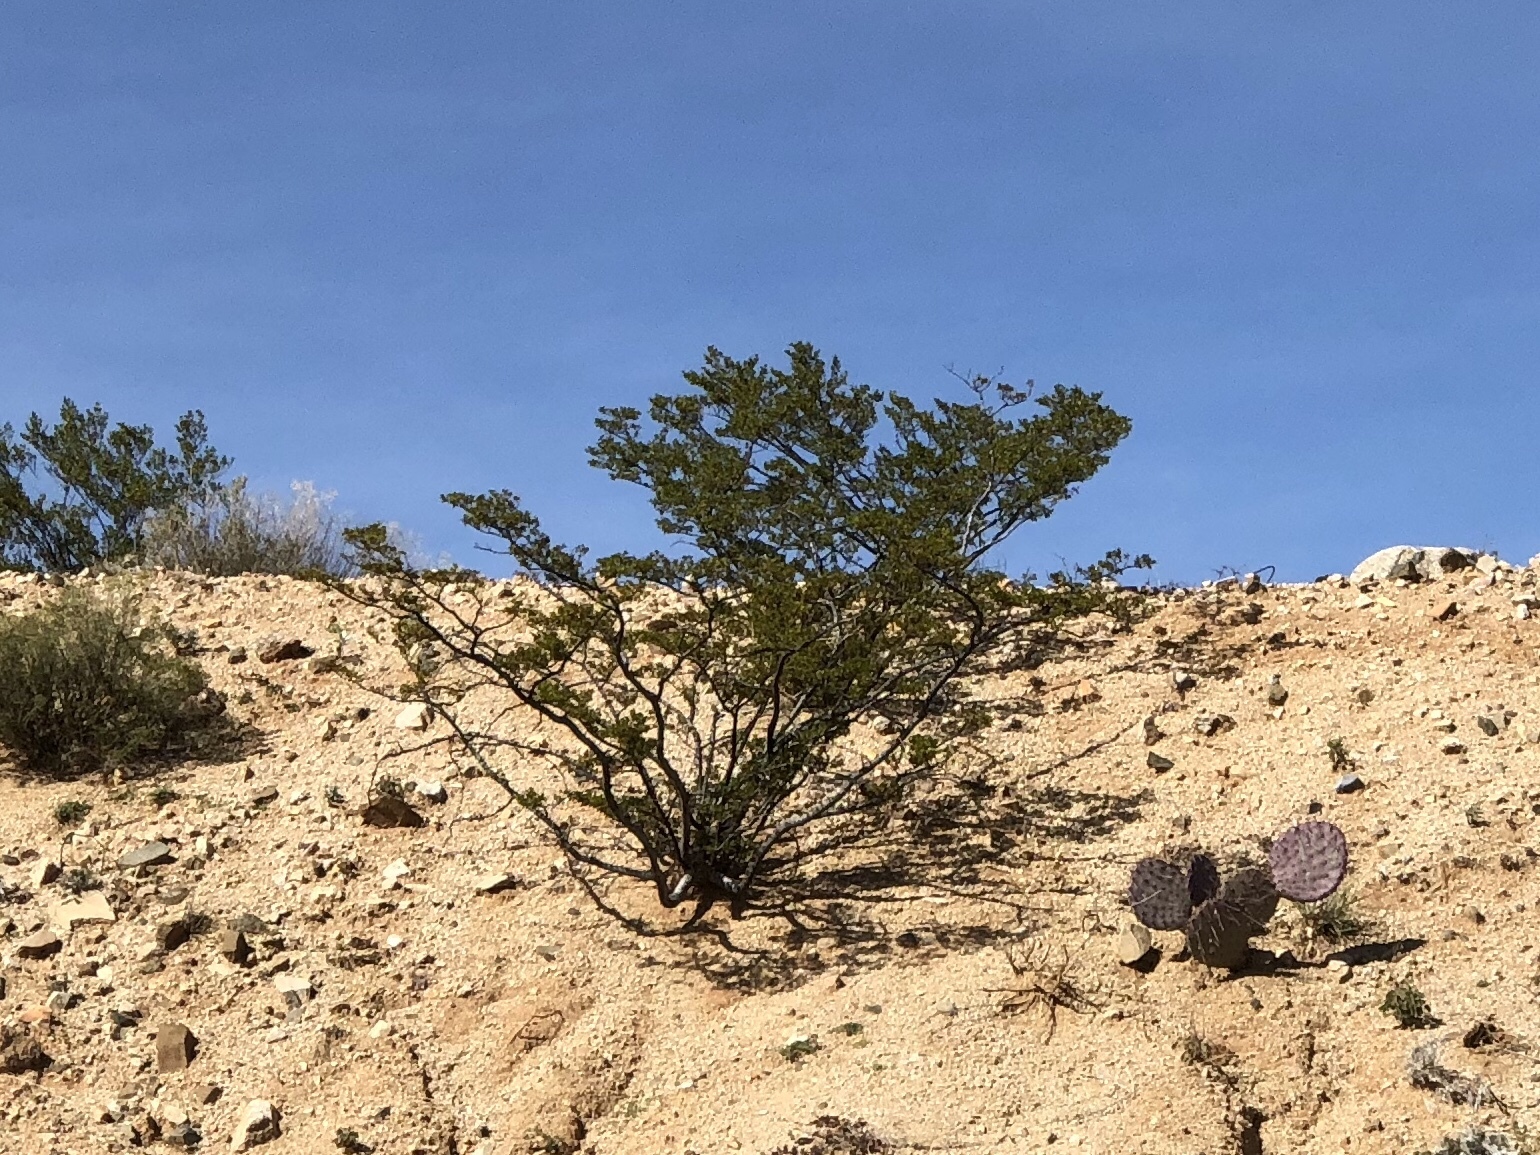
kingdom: Plantae
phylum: Tracheophyta
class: Magnoliopsida
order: Zygophyllales
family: Zygophyllaceae
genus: Larrea
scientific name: Larrea tridentata
